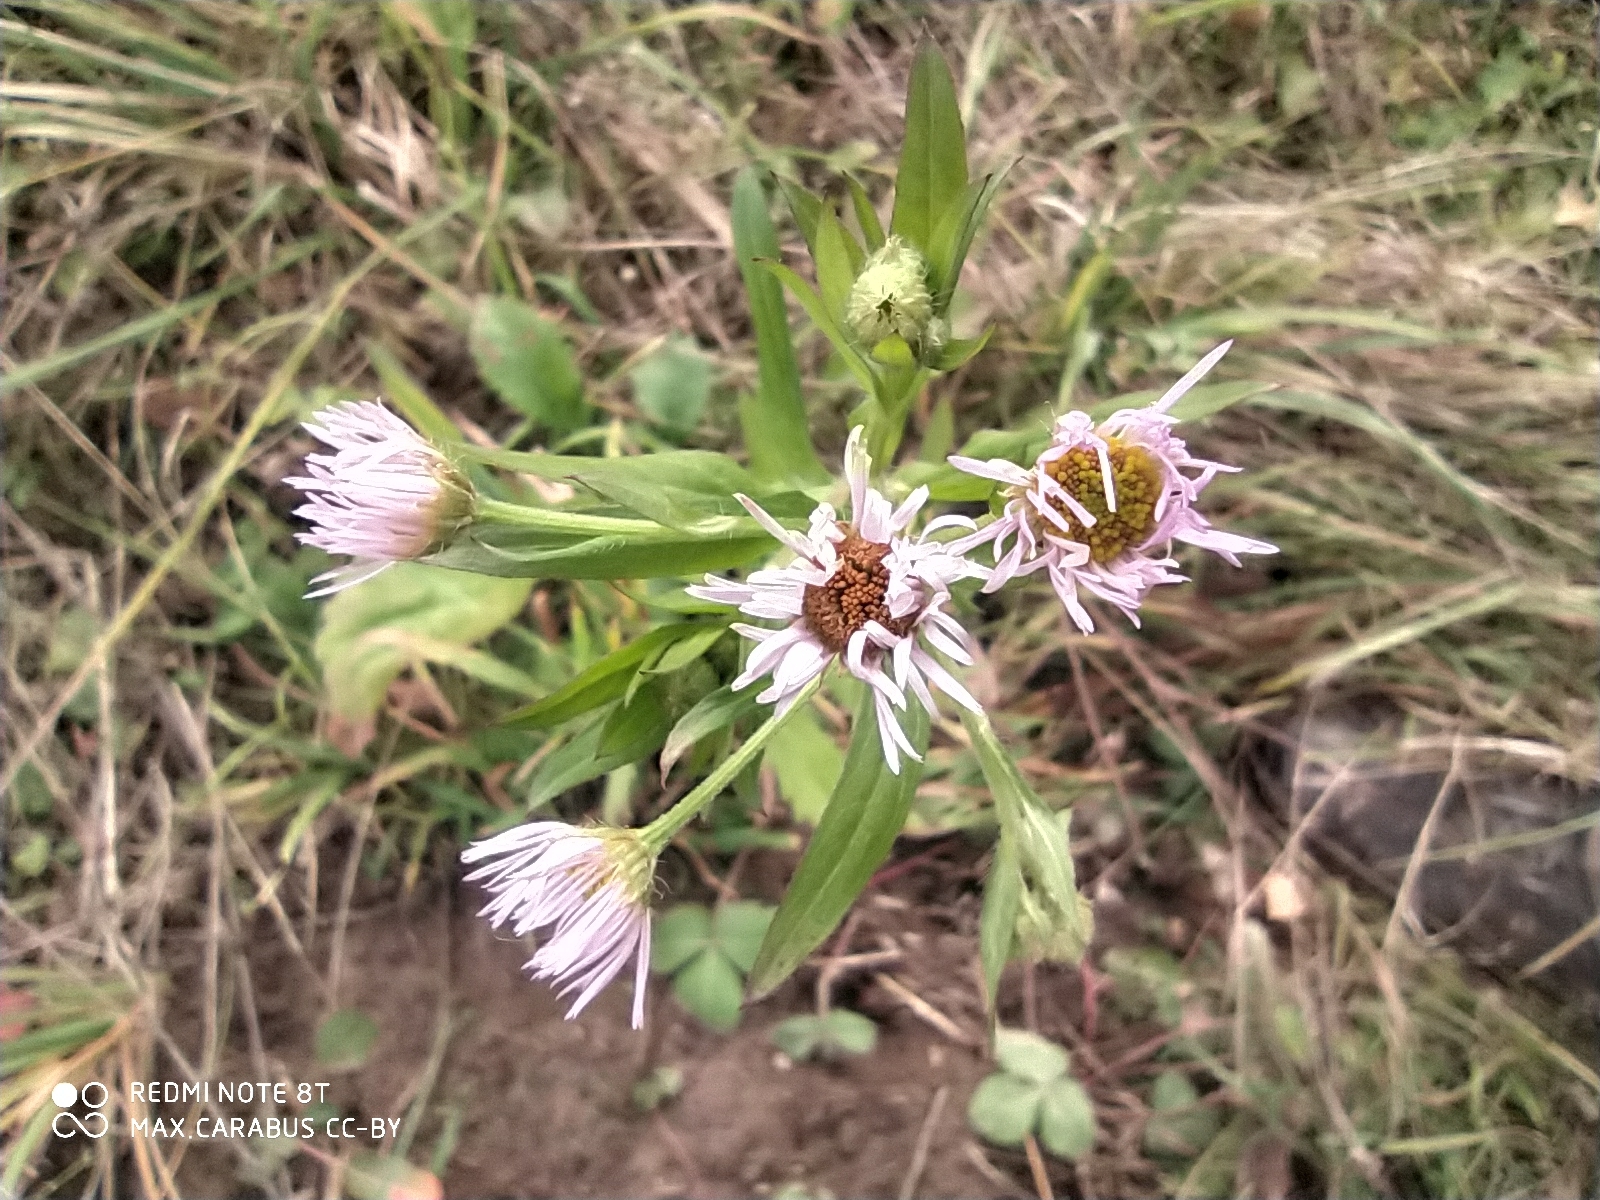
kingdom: Plantae
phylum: Tracheophyta
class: Magnoliopsida
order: Asterales
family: Asteraceae
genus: Erigeron
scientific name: Erigeron annuus
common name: Tall fleabane
